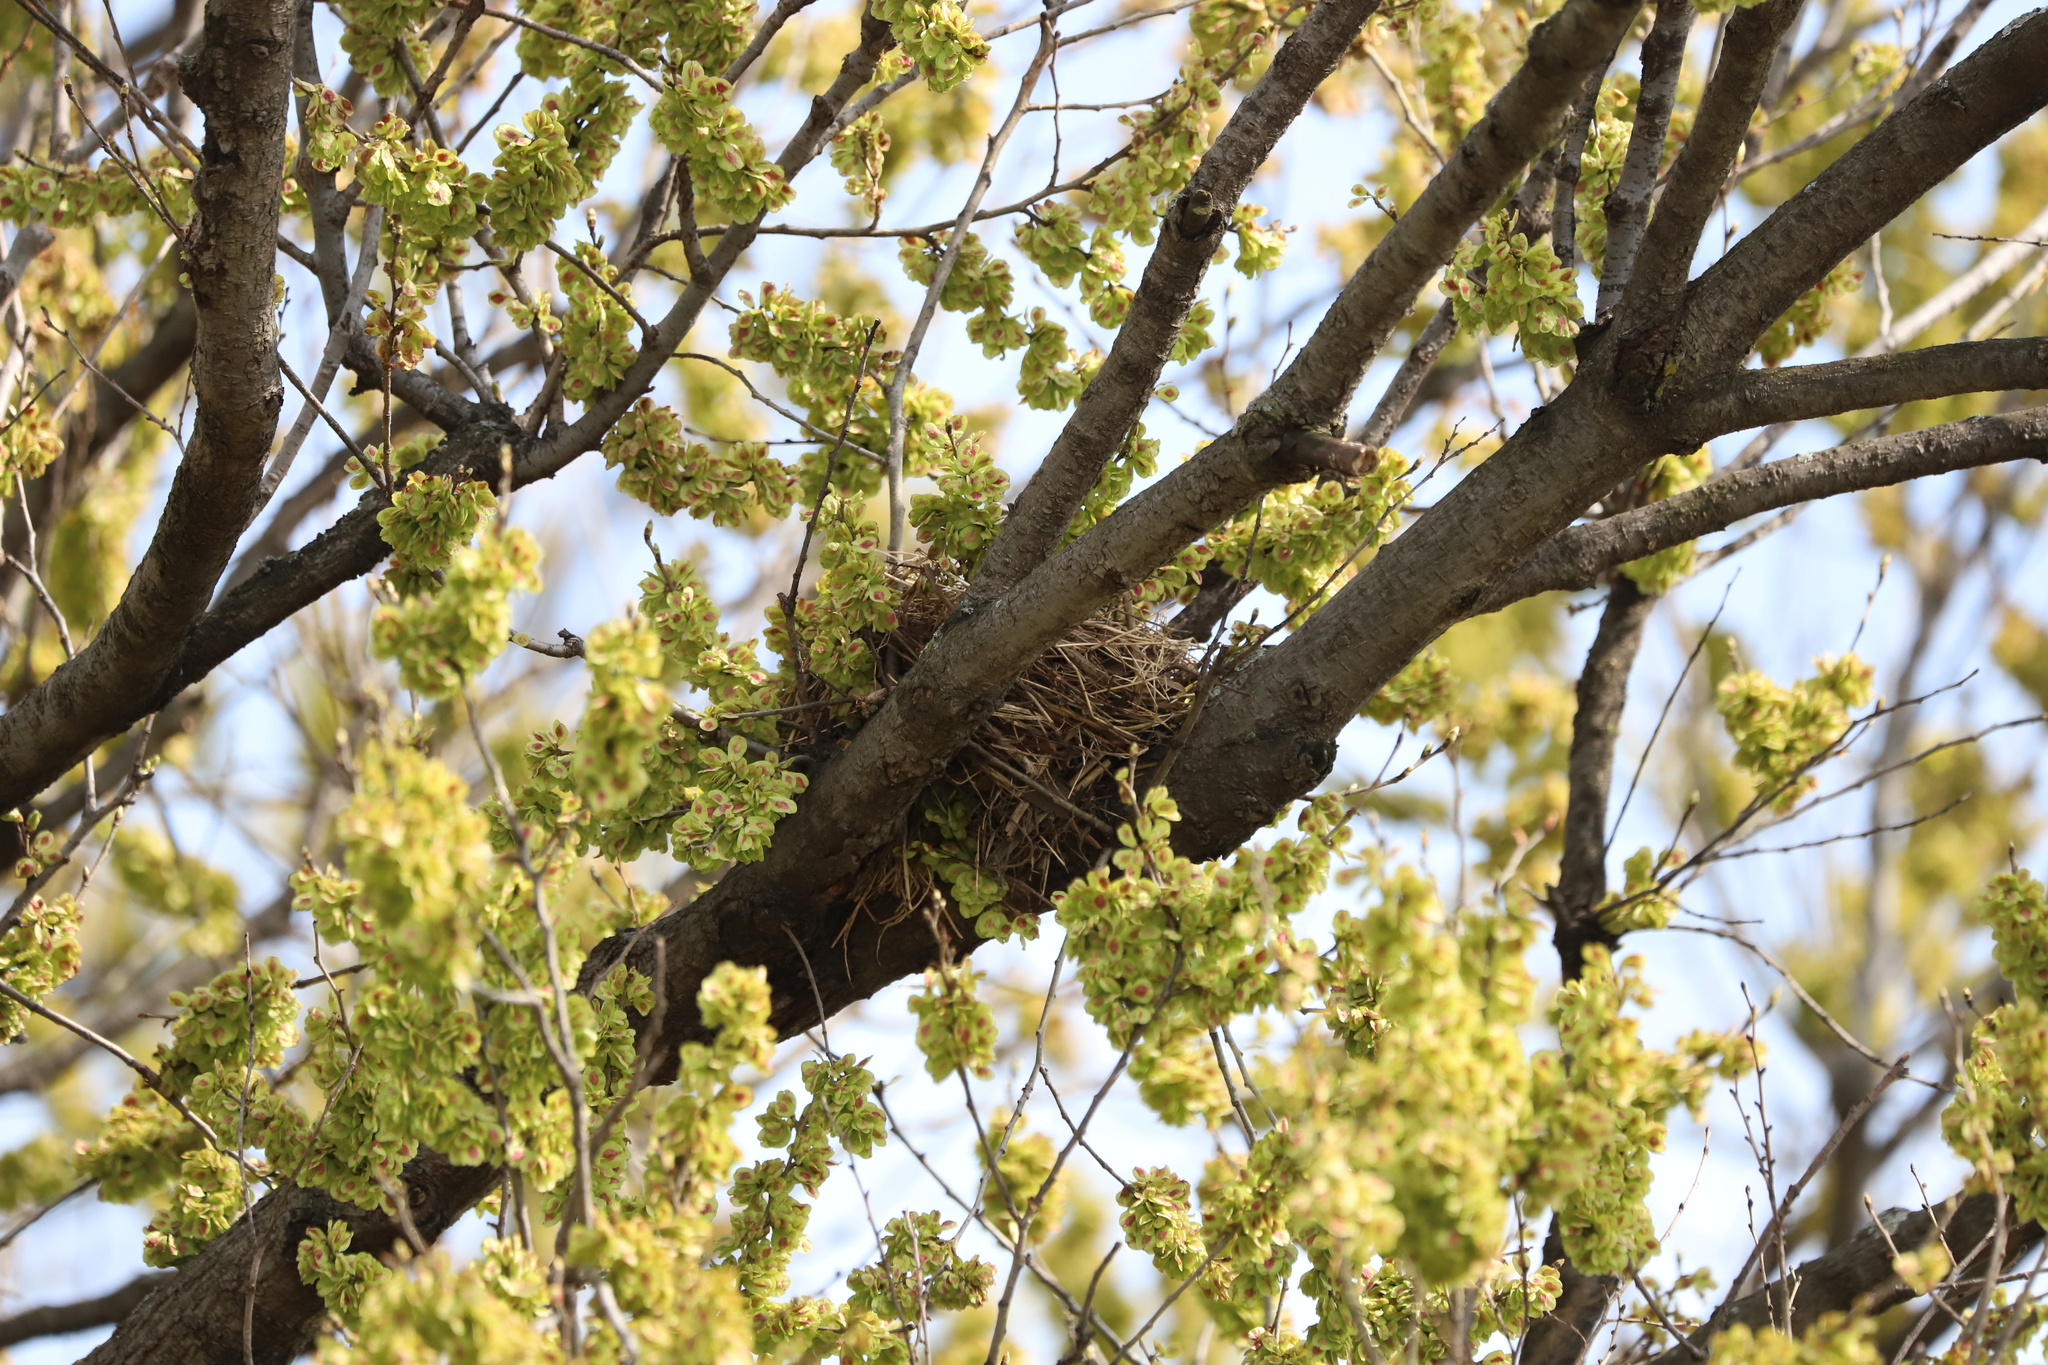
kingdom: Animalia
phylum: Chordata
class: Aves
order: Passeriformes
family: Turdidae
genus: Turdus
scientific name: Turdus migratorius
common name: American robin
